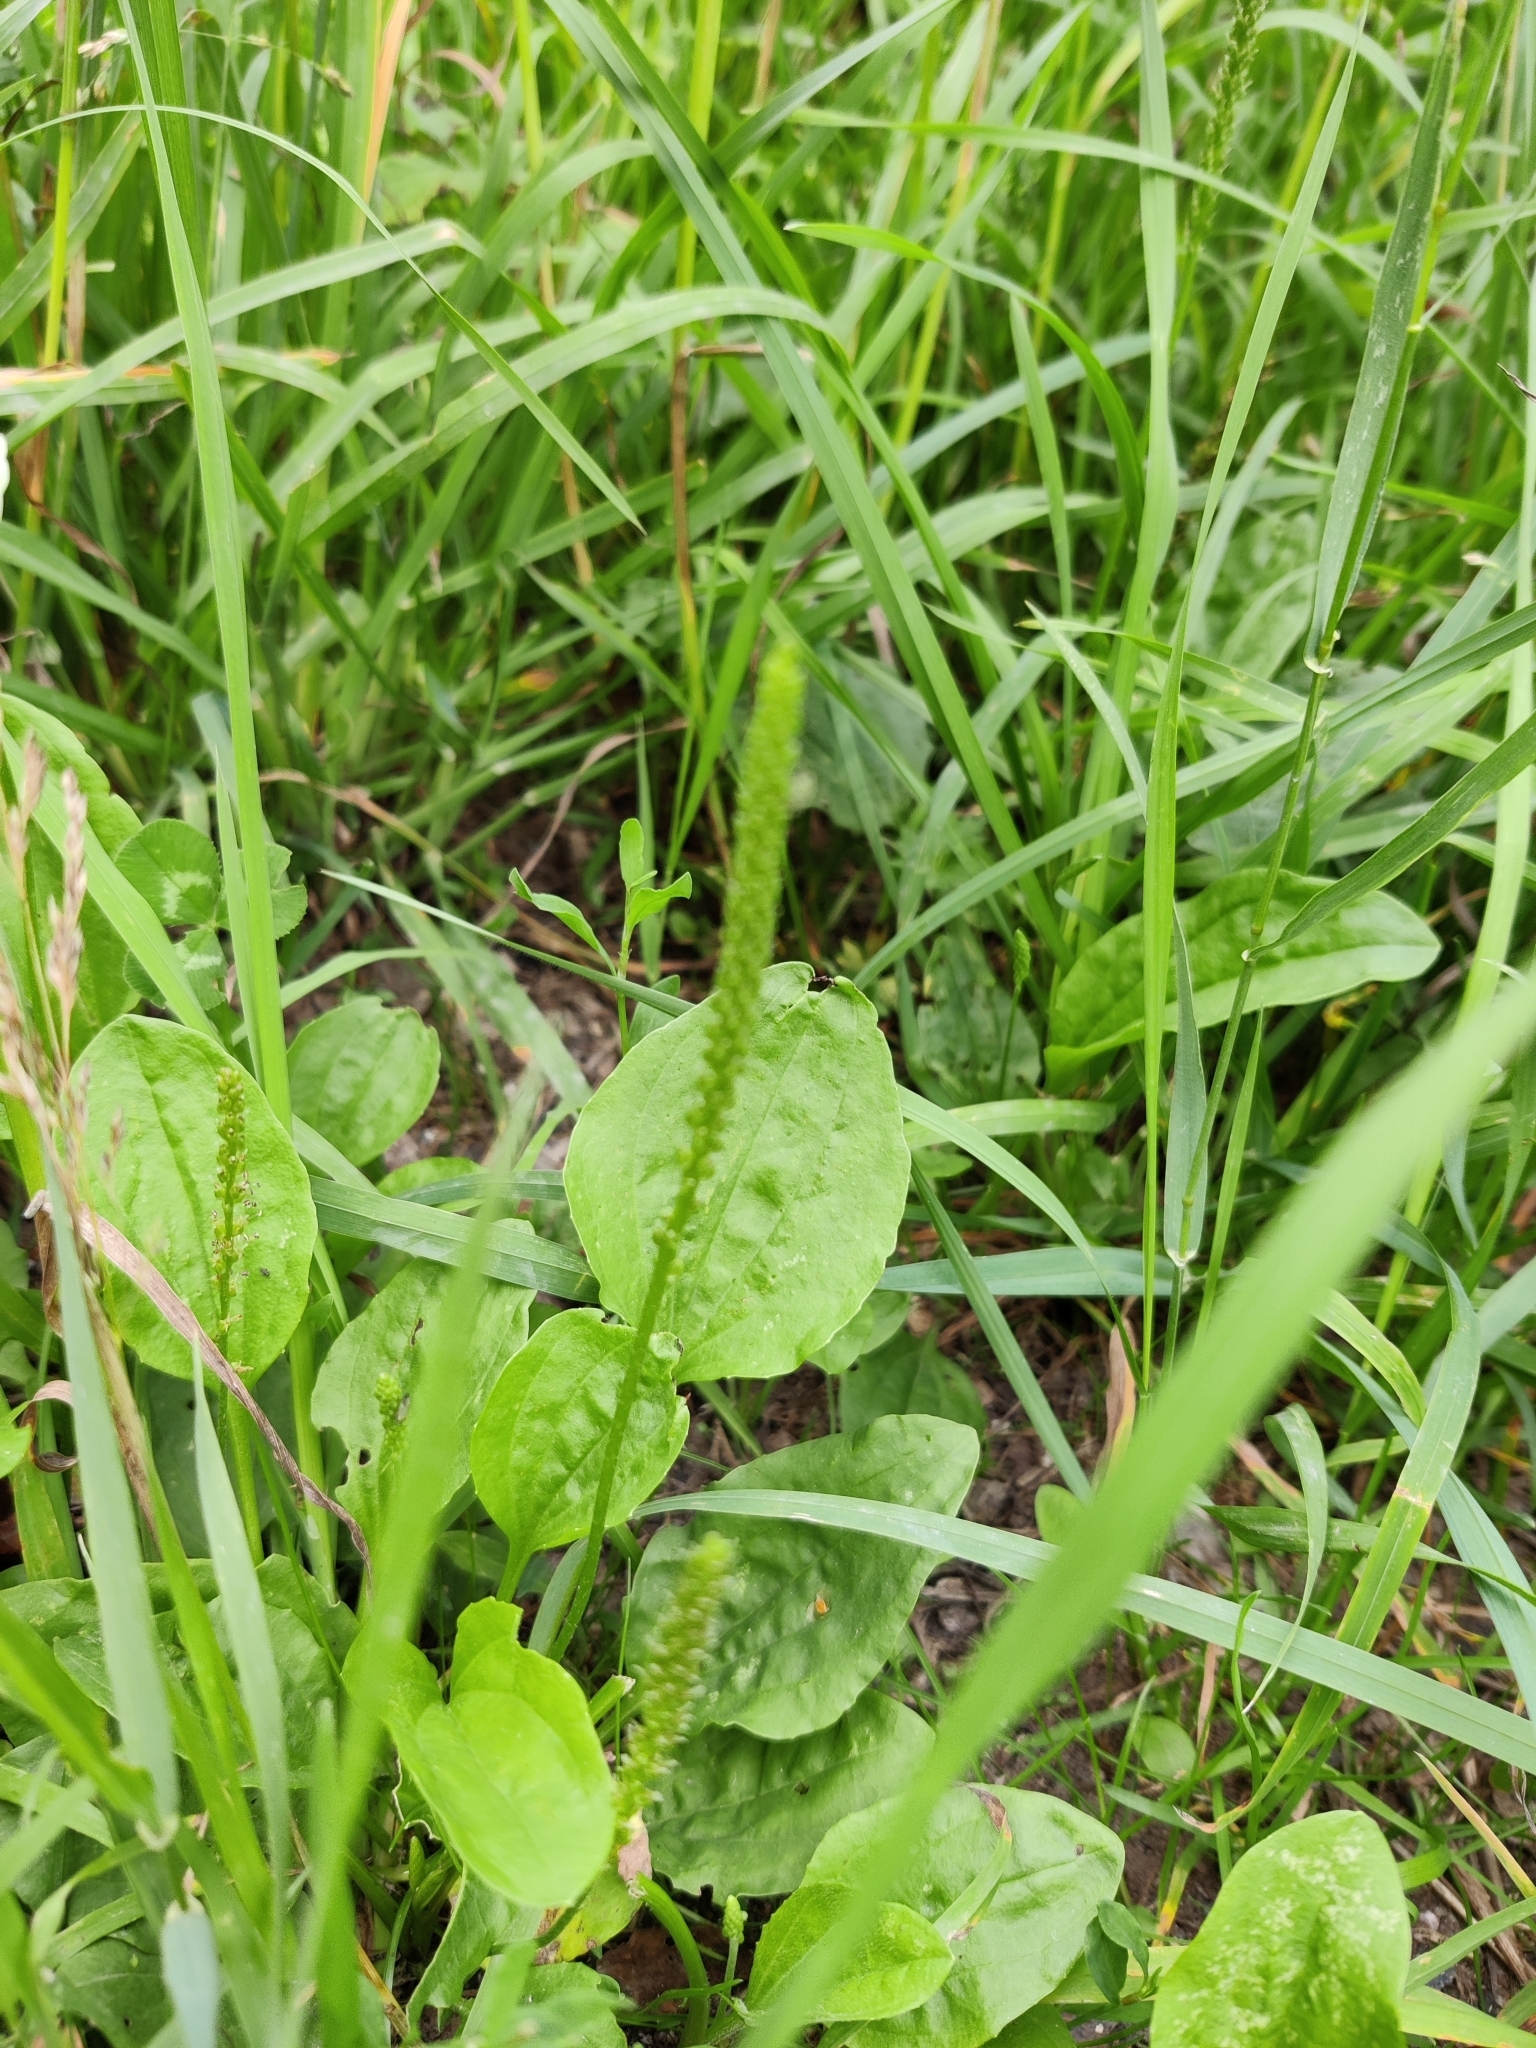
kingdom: Plantae
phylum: Tracheophyta
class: Magnoliopsida
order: Lamiales
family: Plantaginaceae
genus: Plantago
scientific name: Plantago major
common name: Common plantain
